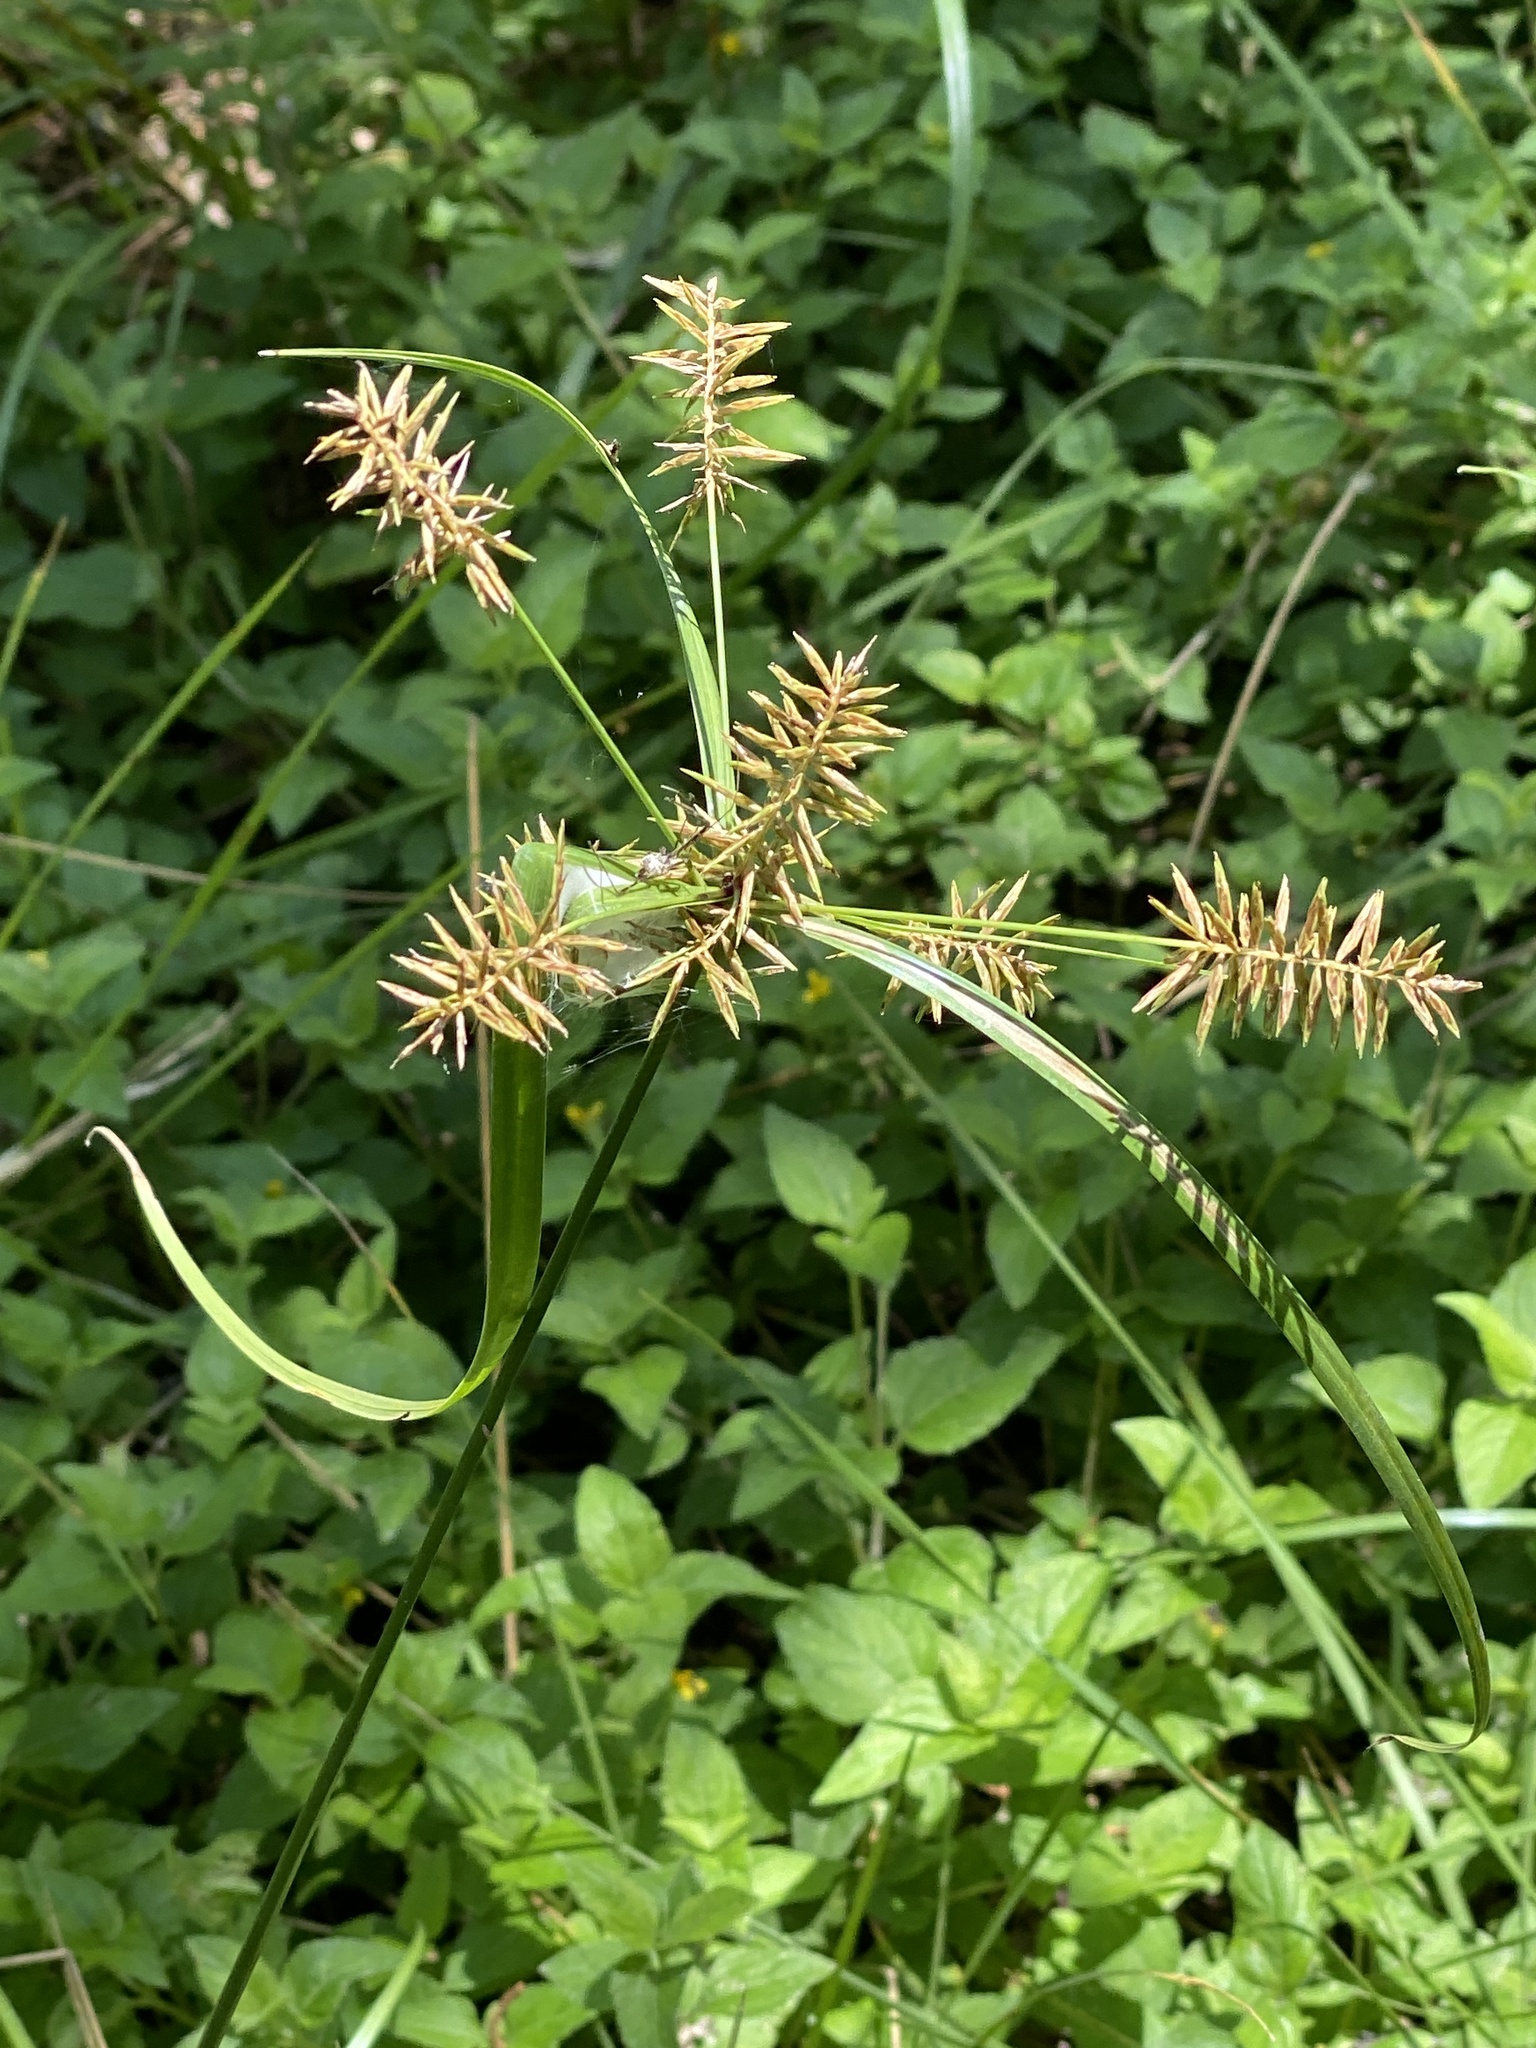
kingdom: Plantae
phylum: Tracheophyta
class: Liliopsida
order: Poales
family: Cyperaceae
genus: Cyperus
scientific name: Cyperus strigosus
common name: False nutsedge
